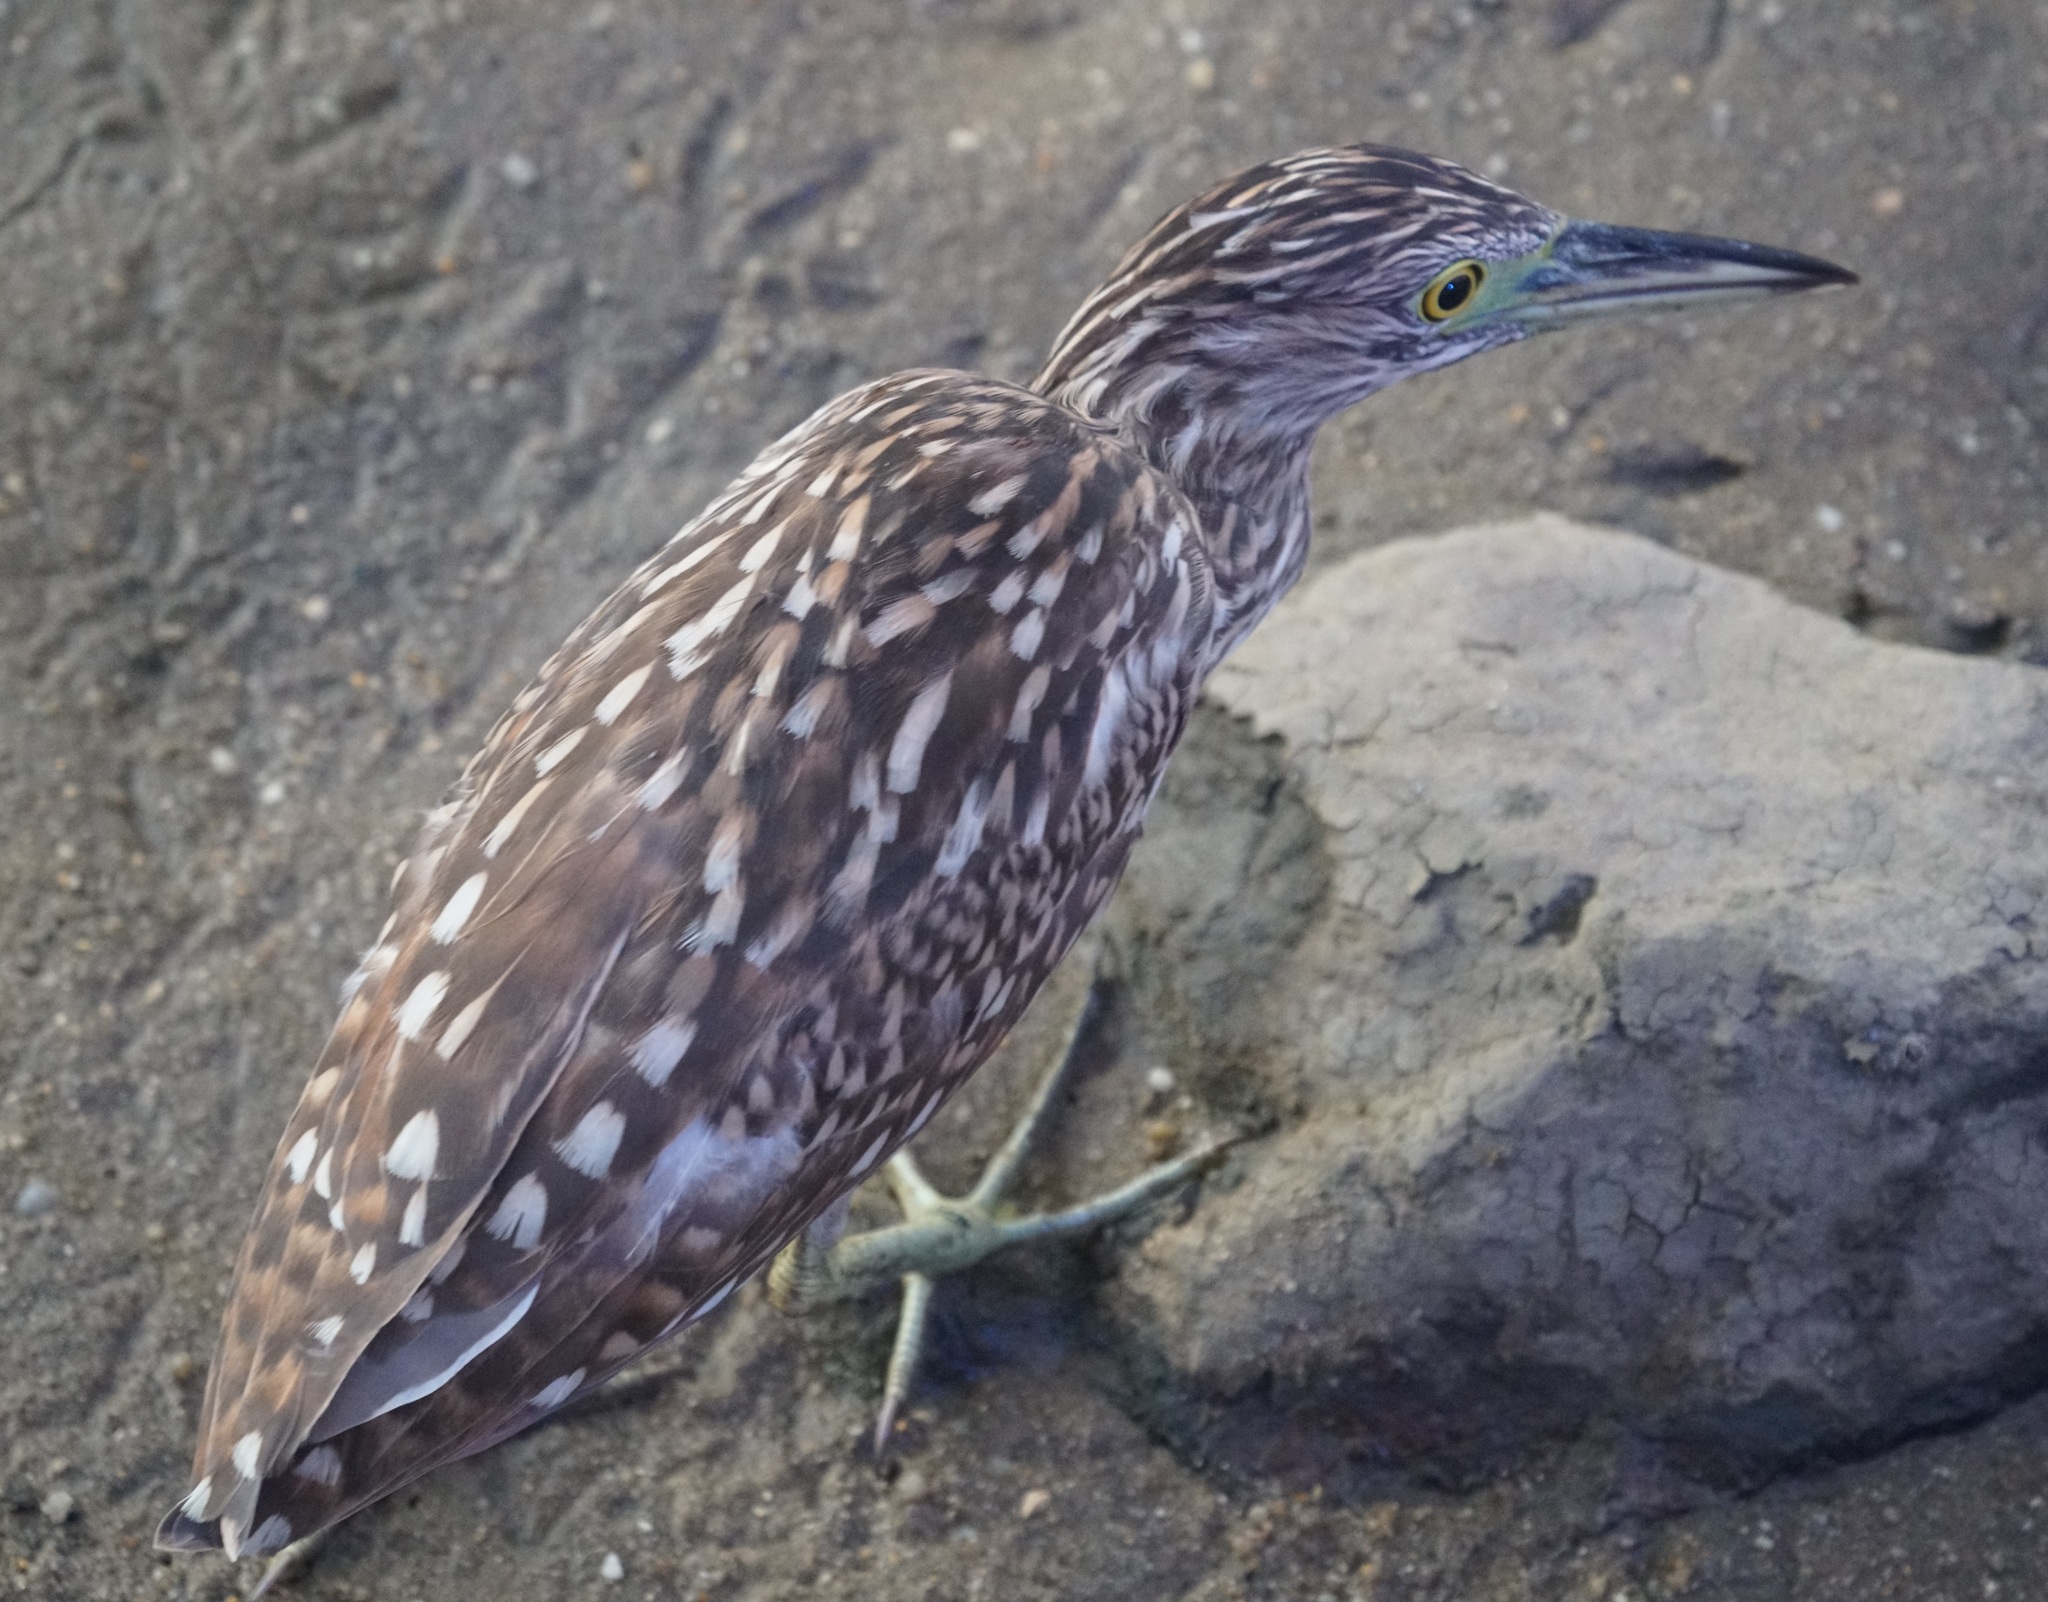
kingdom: Animalia
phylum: Chordata
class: Aves
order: Pelecaniformes
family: Ardeidae
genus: Nycticorax
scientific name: Nycticorax caledonicus
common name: Rufous night-heron
